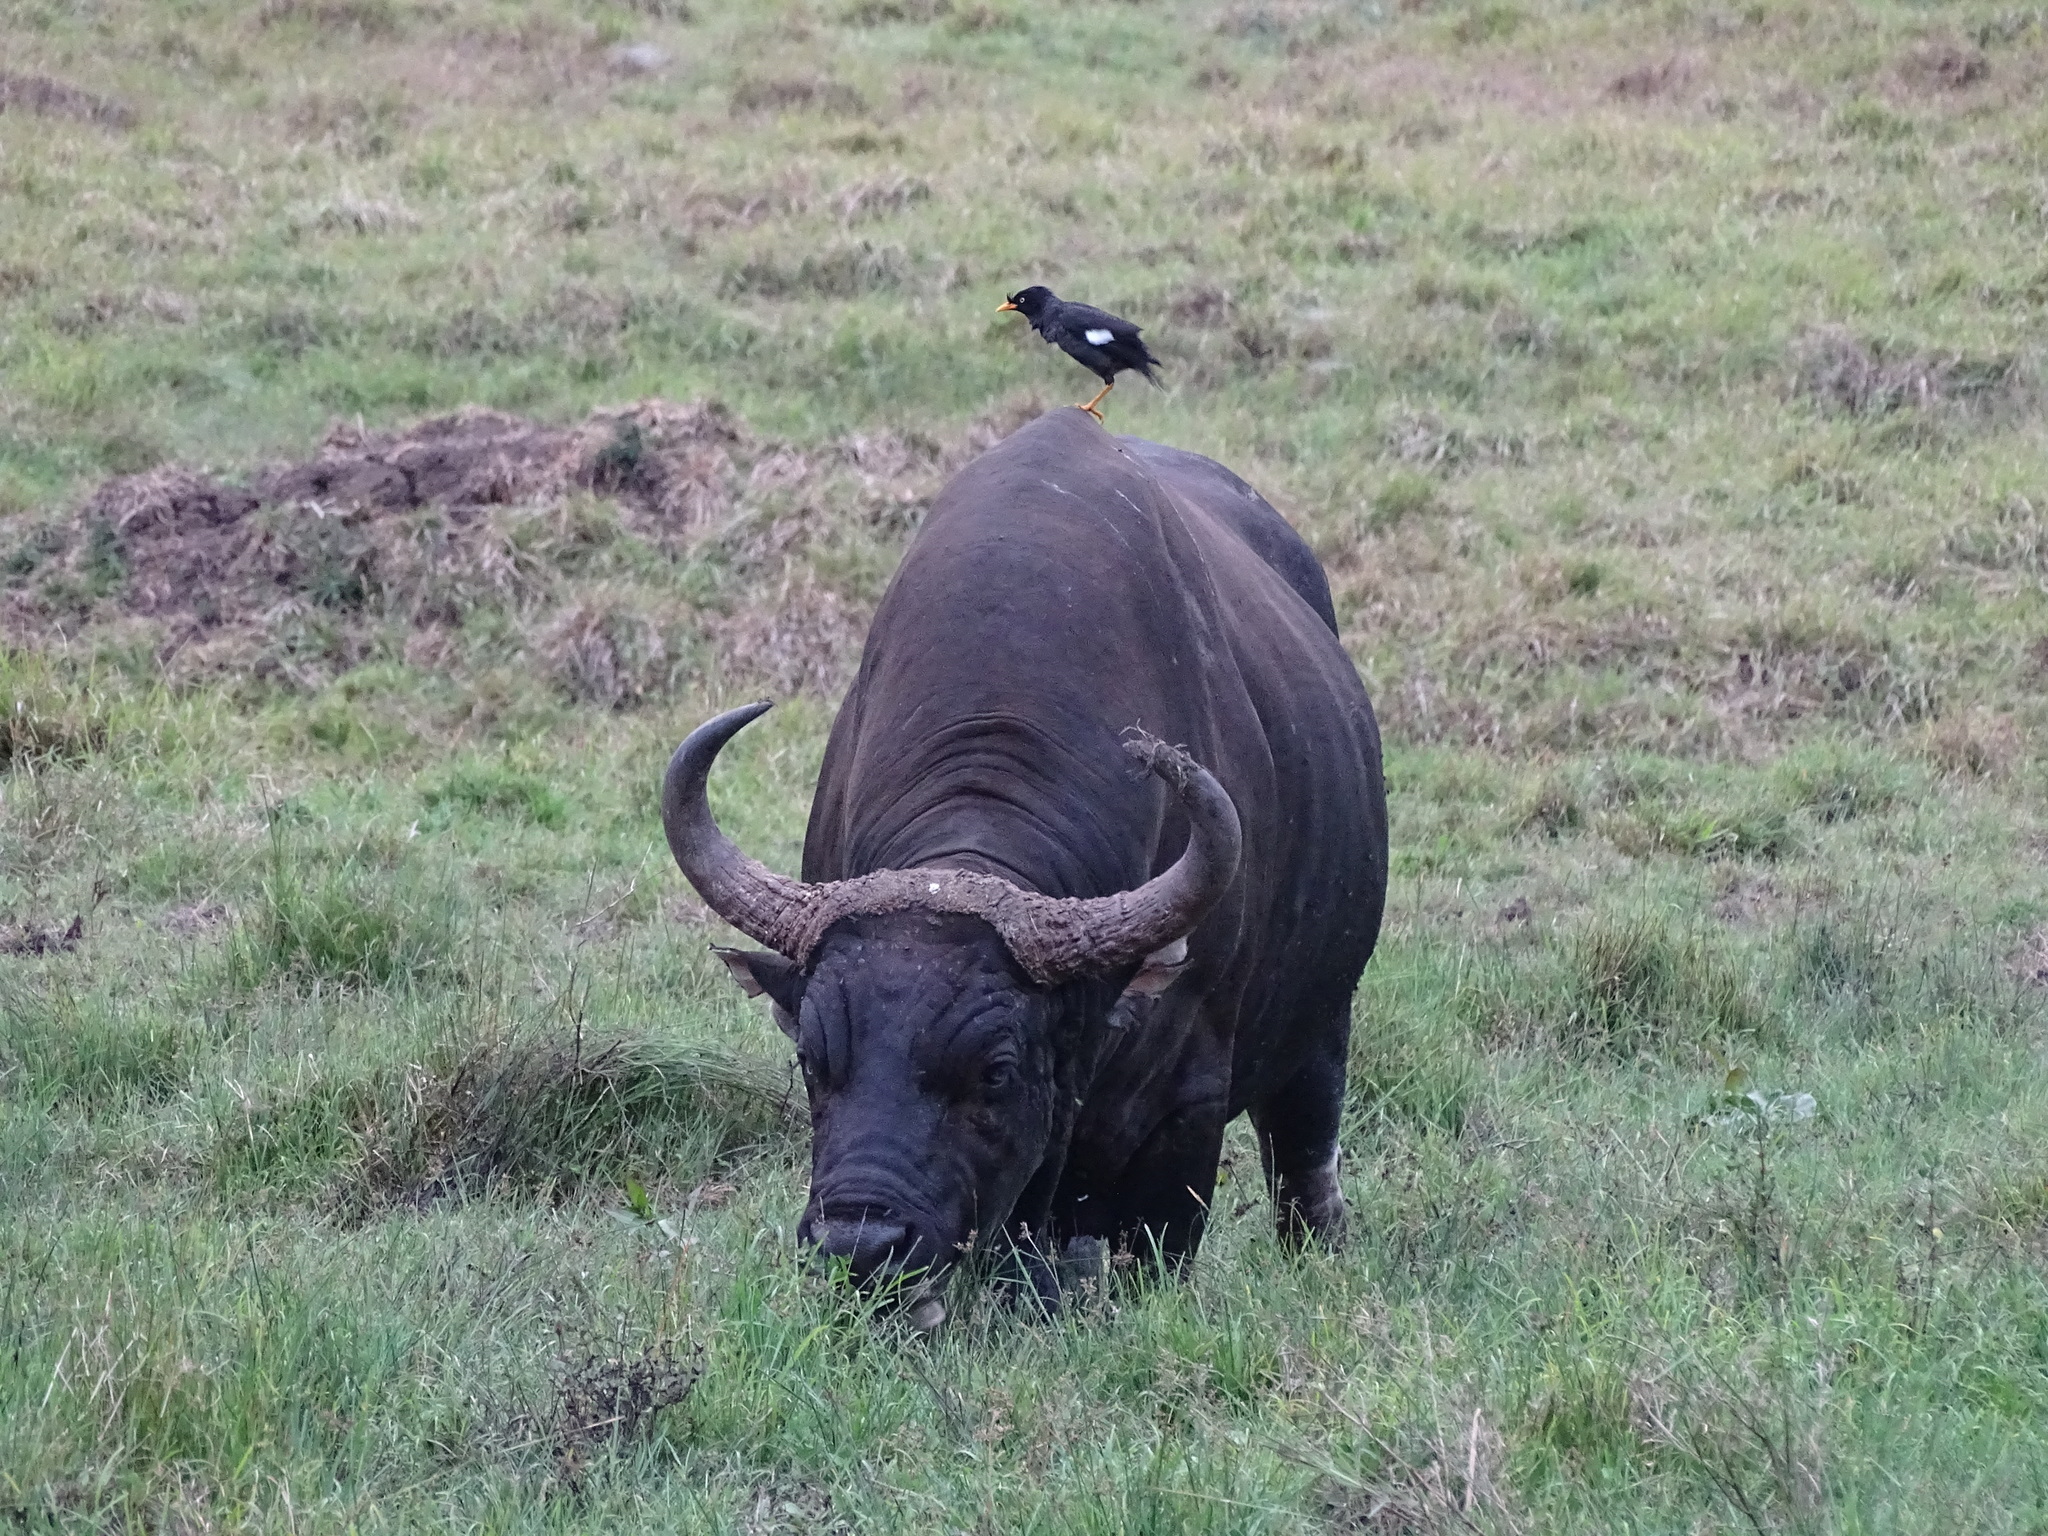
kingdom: Animalia
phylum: Chordata
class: Mammalia
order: Artiodactyla
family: Bovidae
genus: Bos
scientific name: Bos javanicus
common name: Banteng
